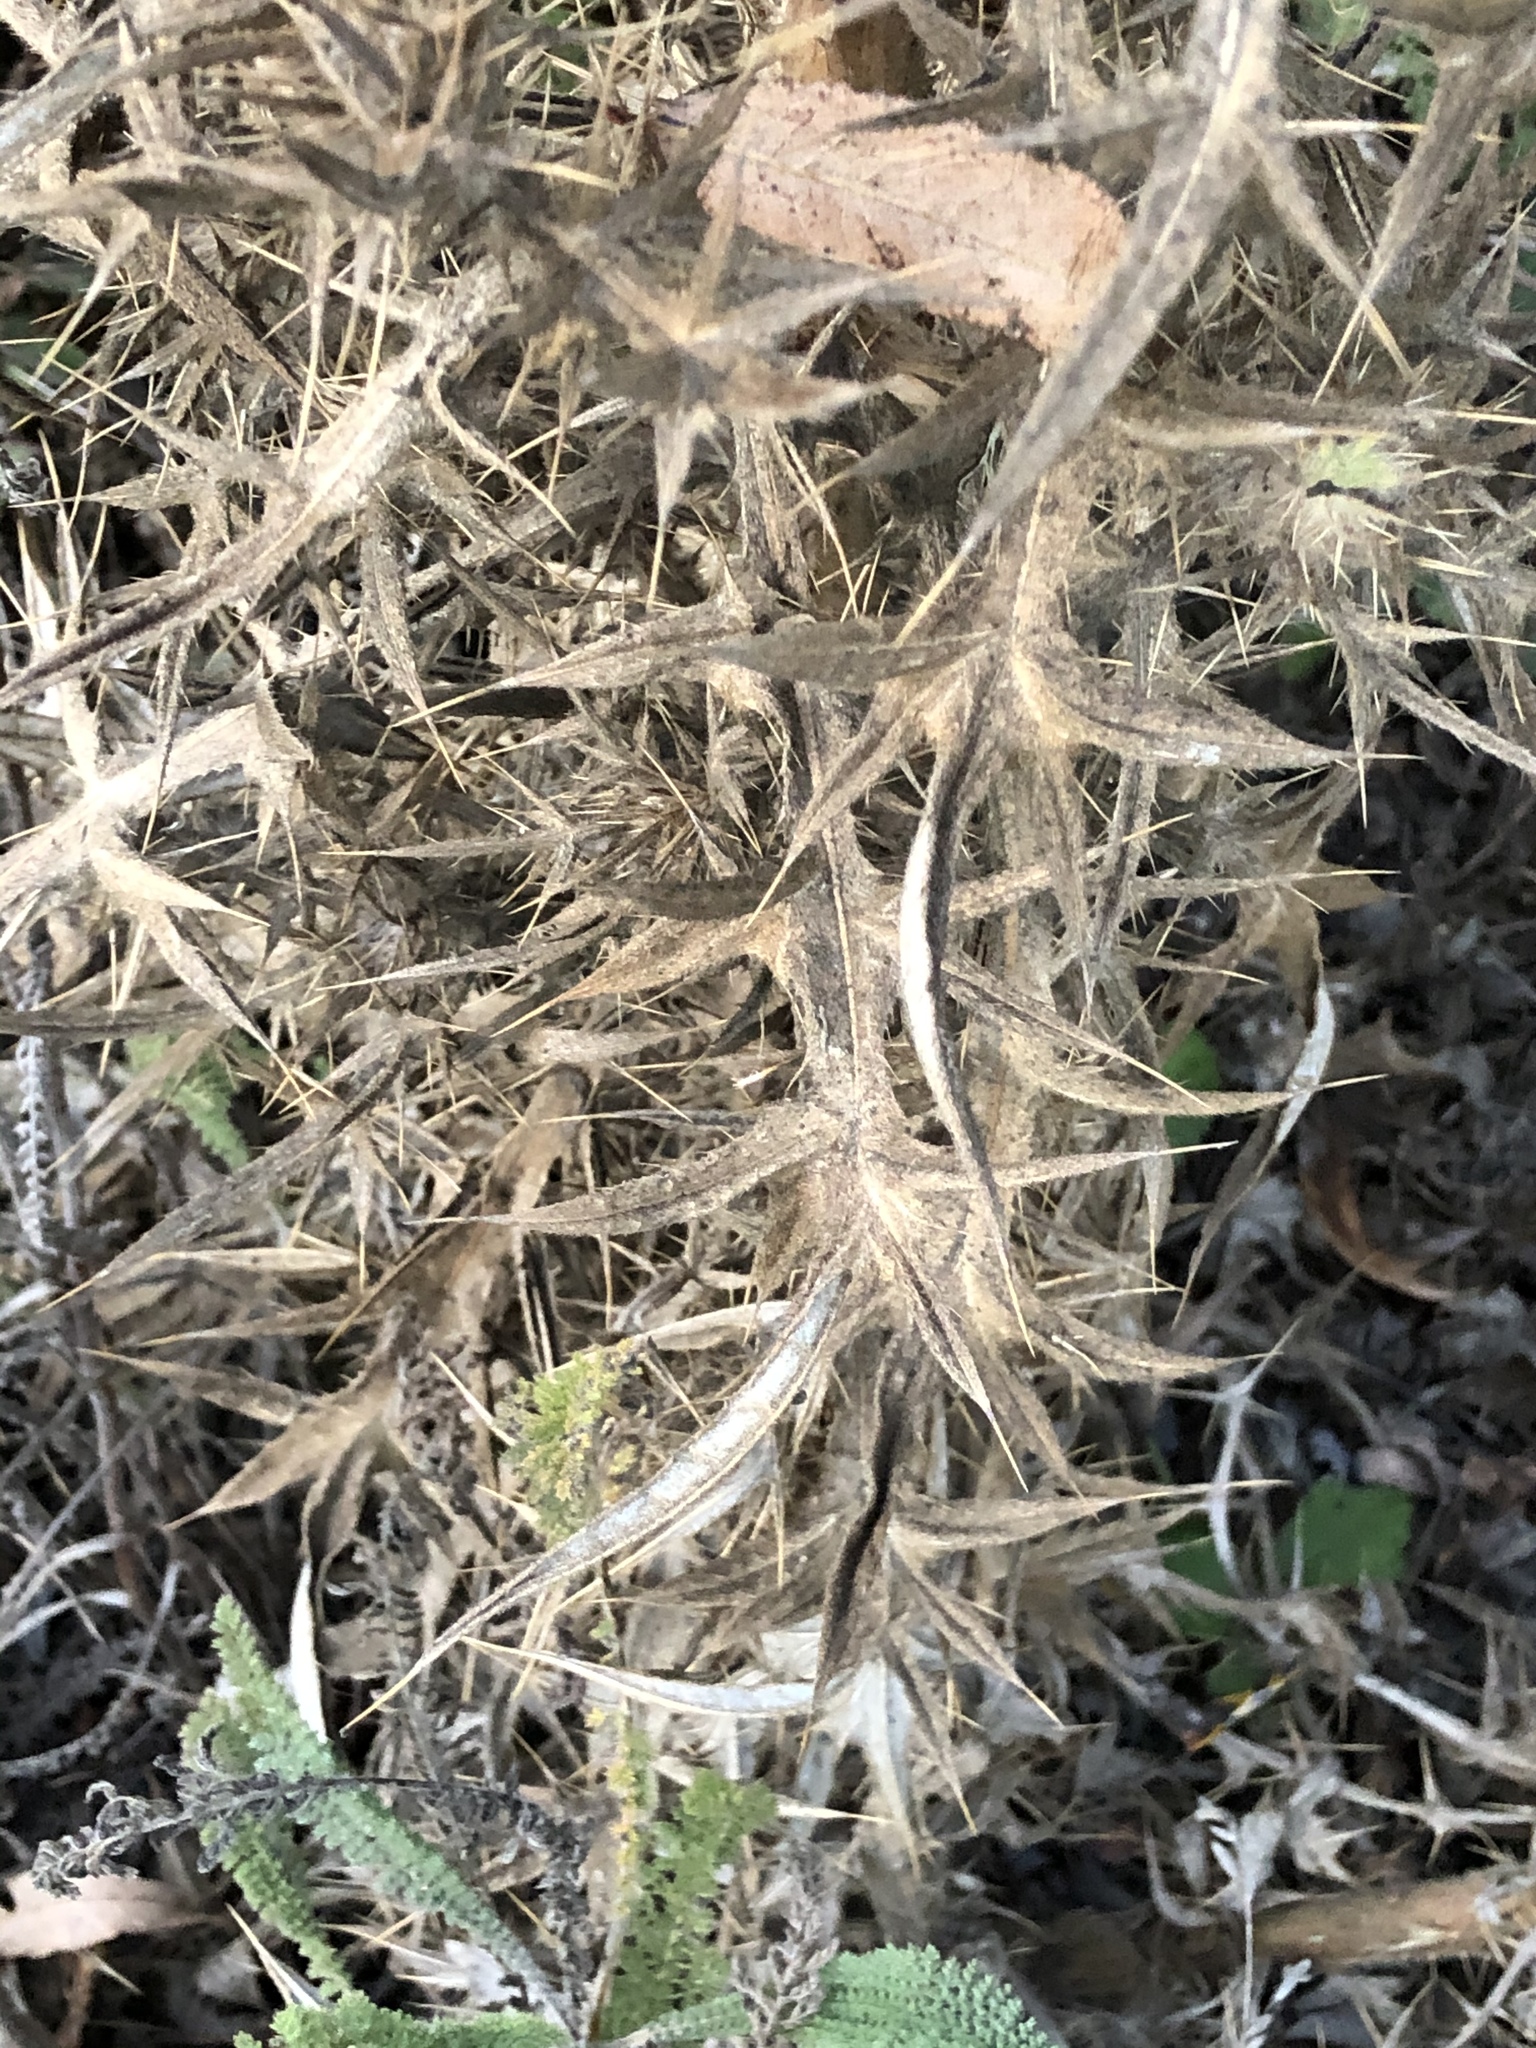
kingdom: Plantae
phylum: Tracheophyta
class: Magnoliopsida
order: Asterales
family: Asteraceae
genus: Cirsium
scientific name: Cirsium vulgare
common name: Bull thistle
